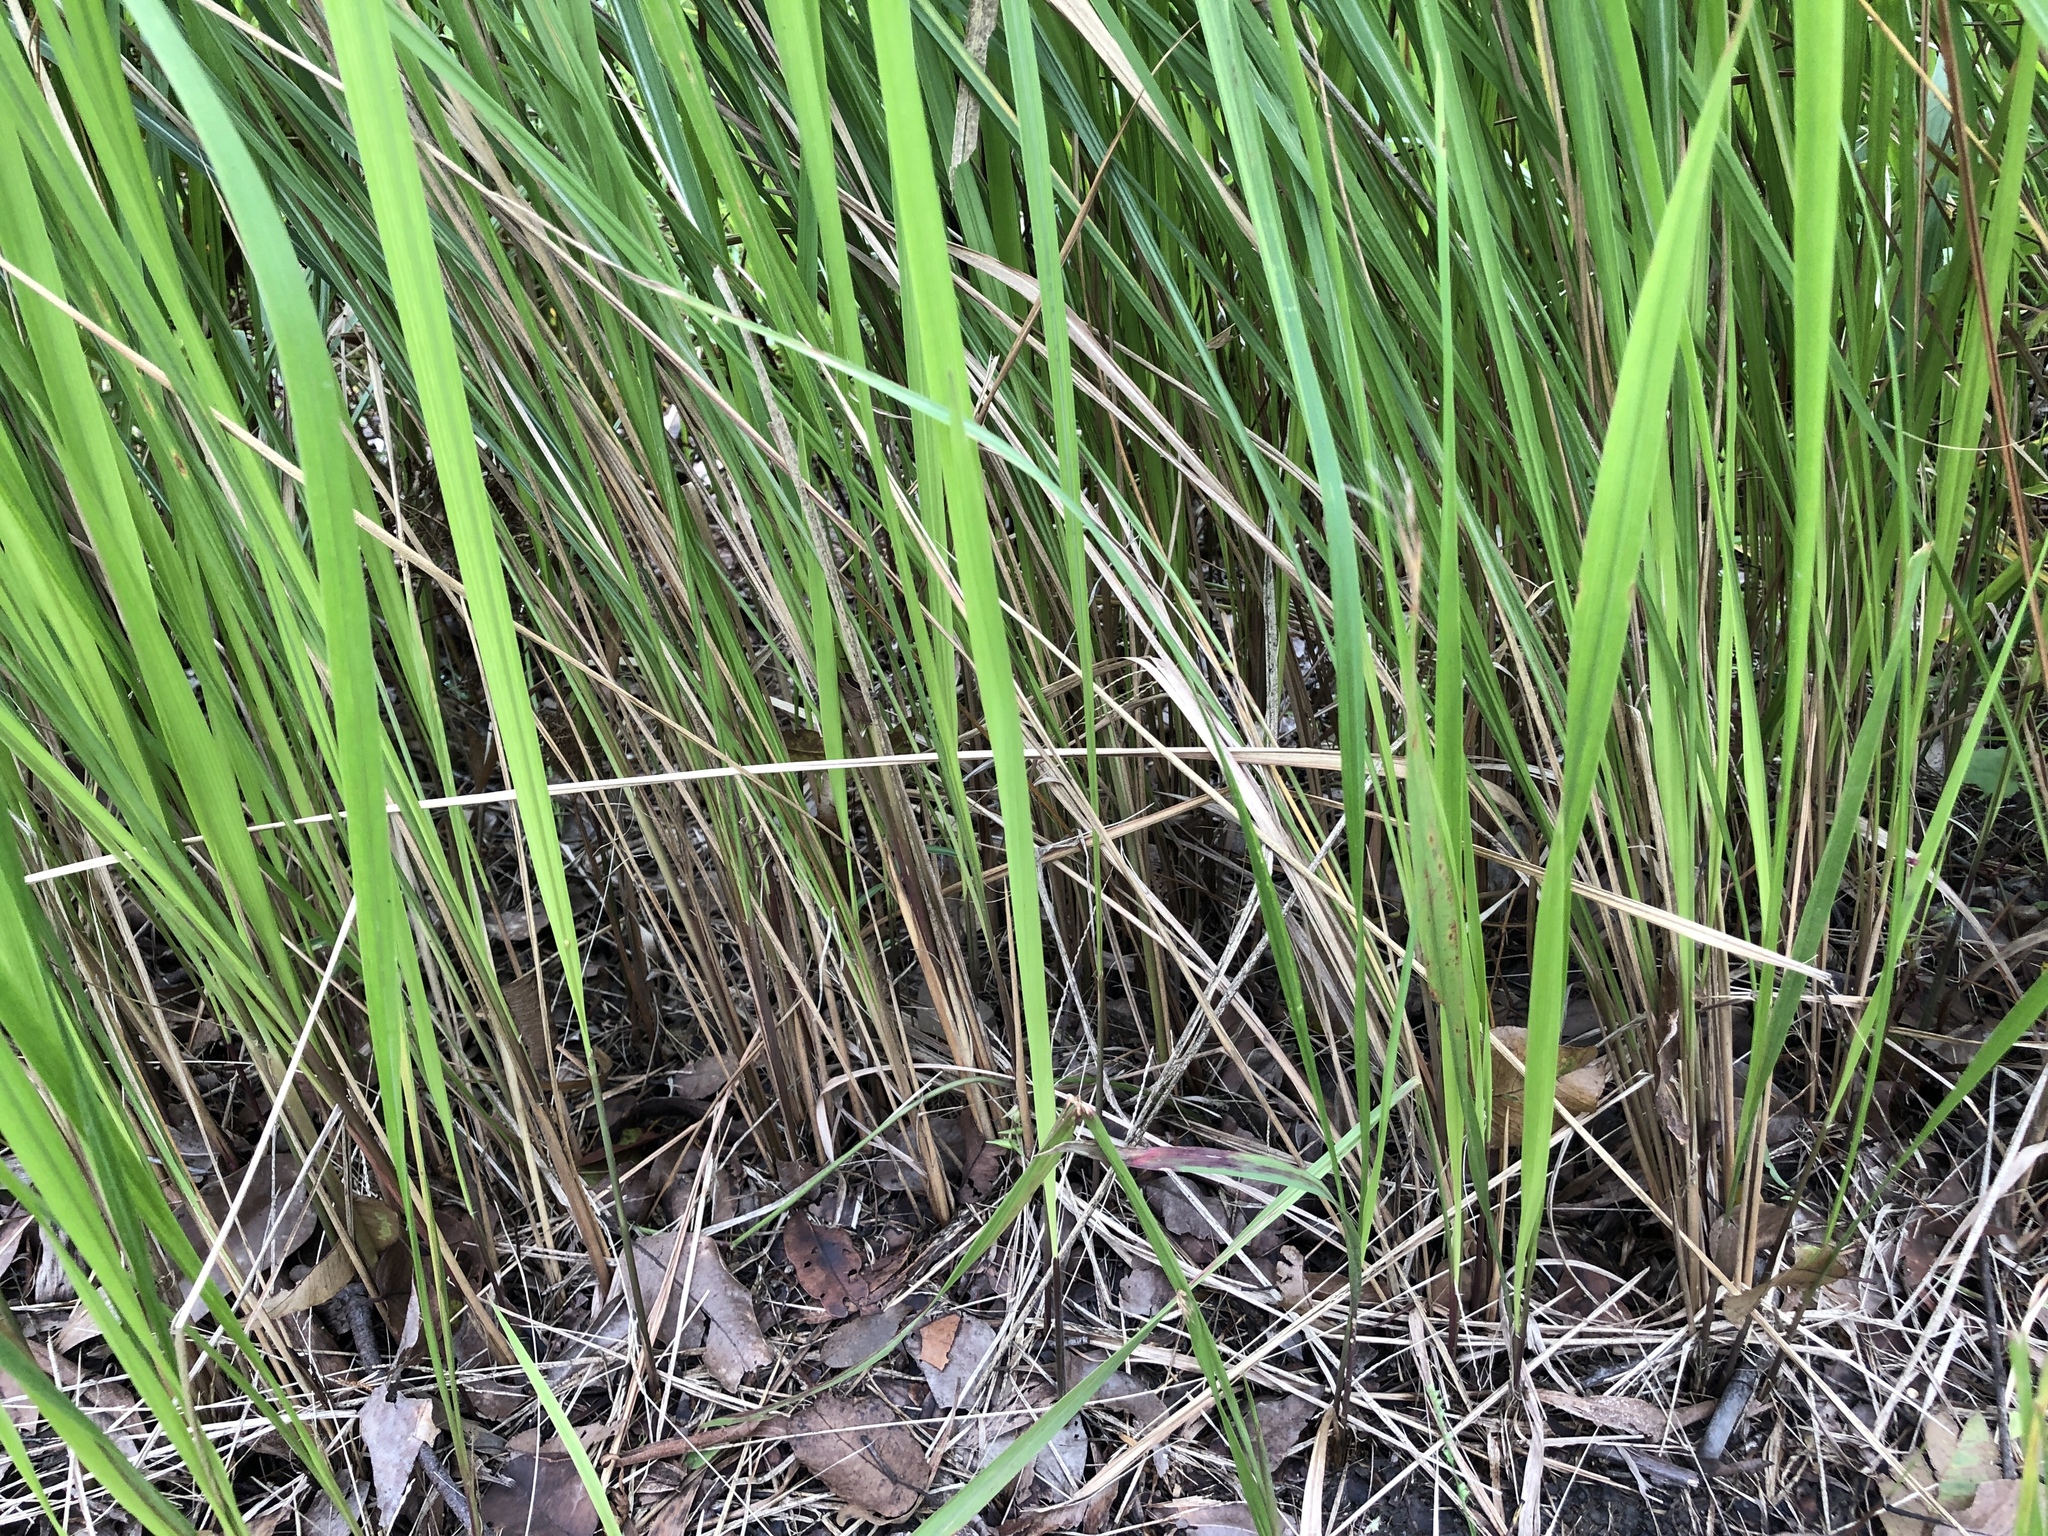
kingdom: Plantae
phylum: Tracheophyta
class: Liliopsida
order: Poales
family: Poaceae
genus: Imperata
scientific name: Imperata cylindrica
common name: Cogongrass
